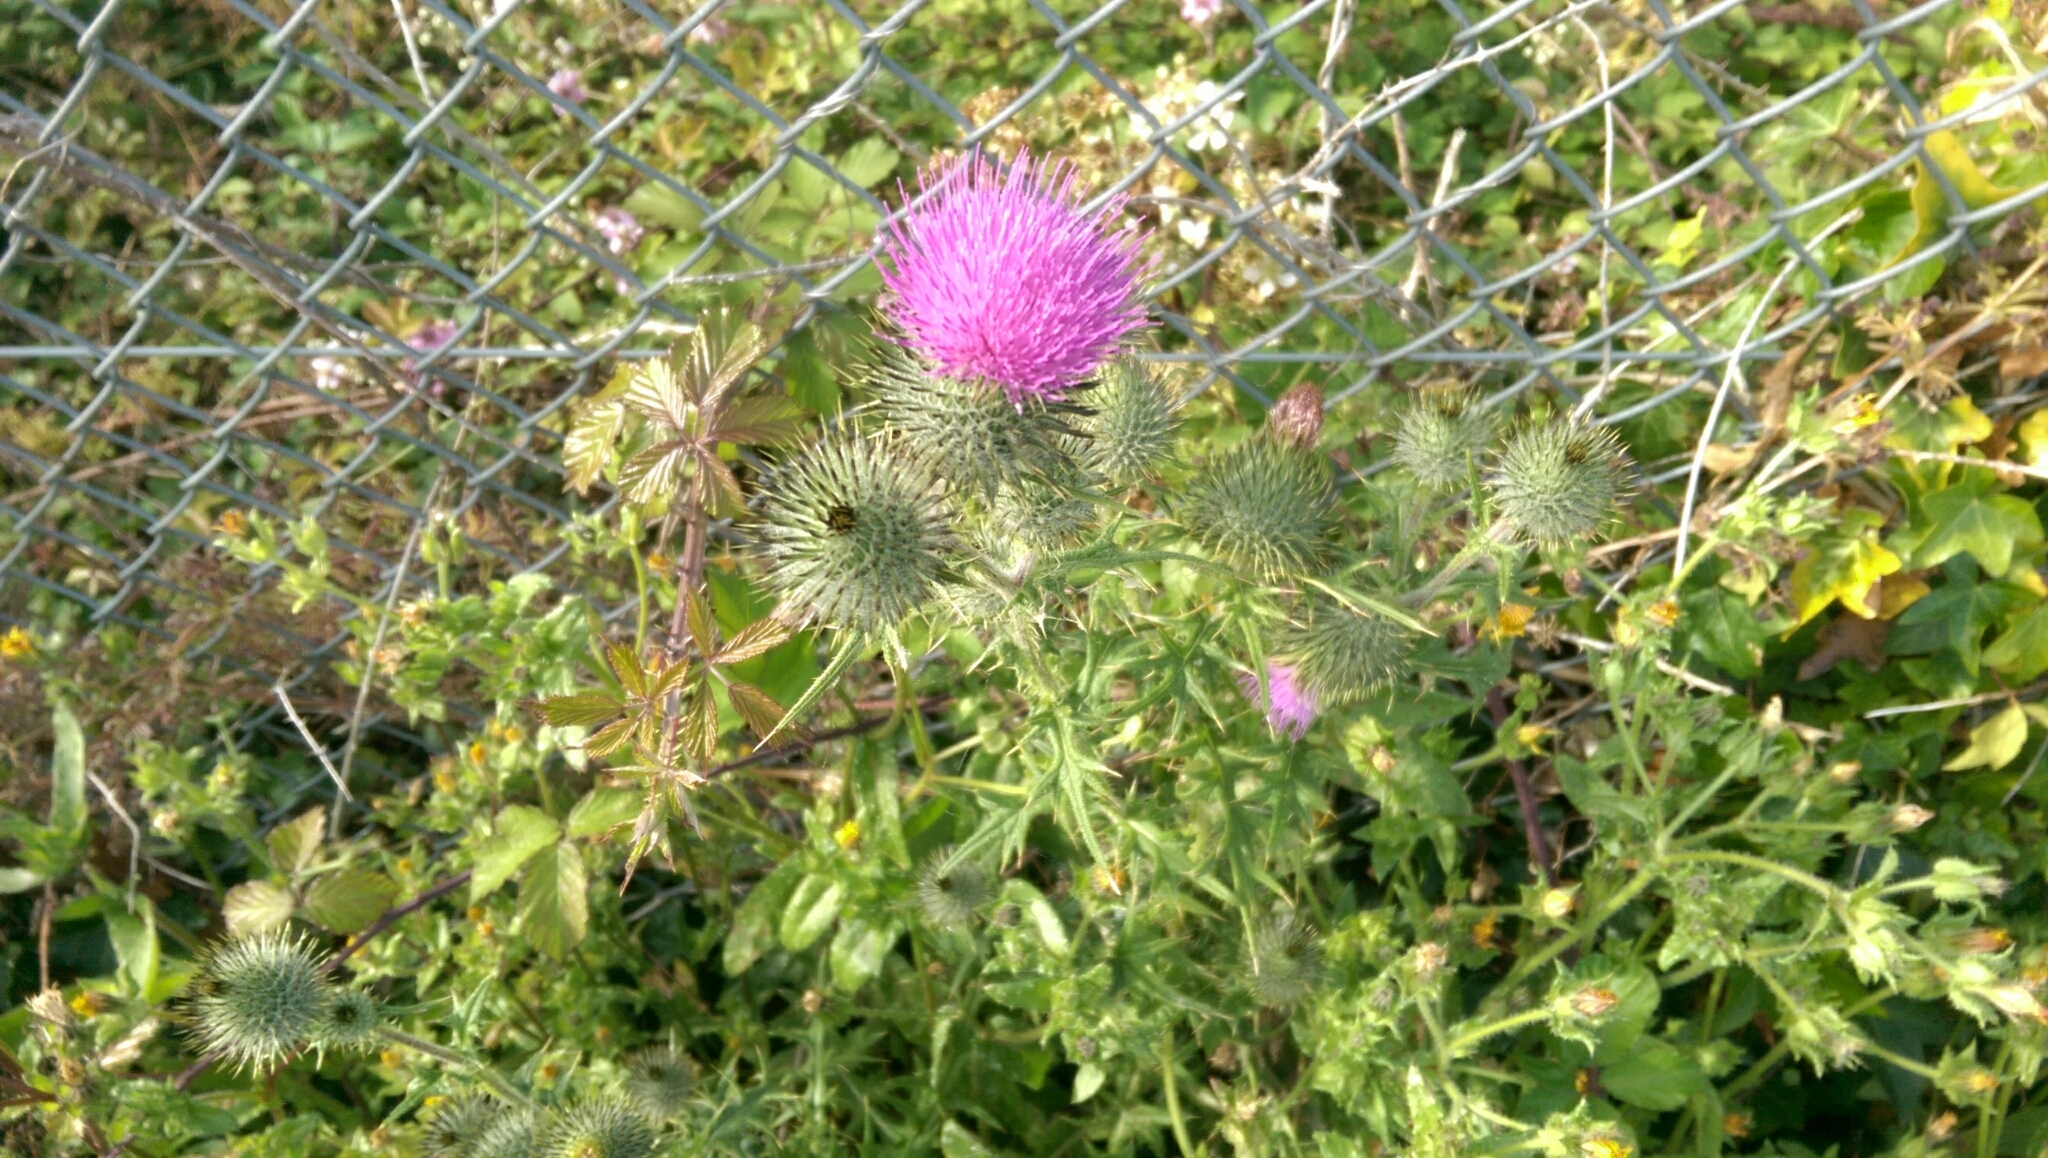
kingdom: Plantae
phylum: Tracheophyta
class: Magnoliopsida
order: Asterales
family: Asteraceae
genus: Cirsium
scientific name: Cirsium vulgare
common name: Bull thistle
